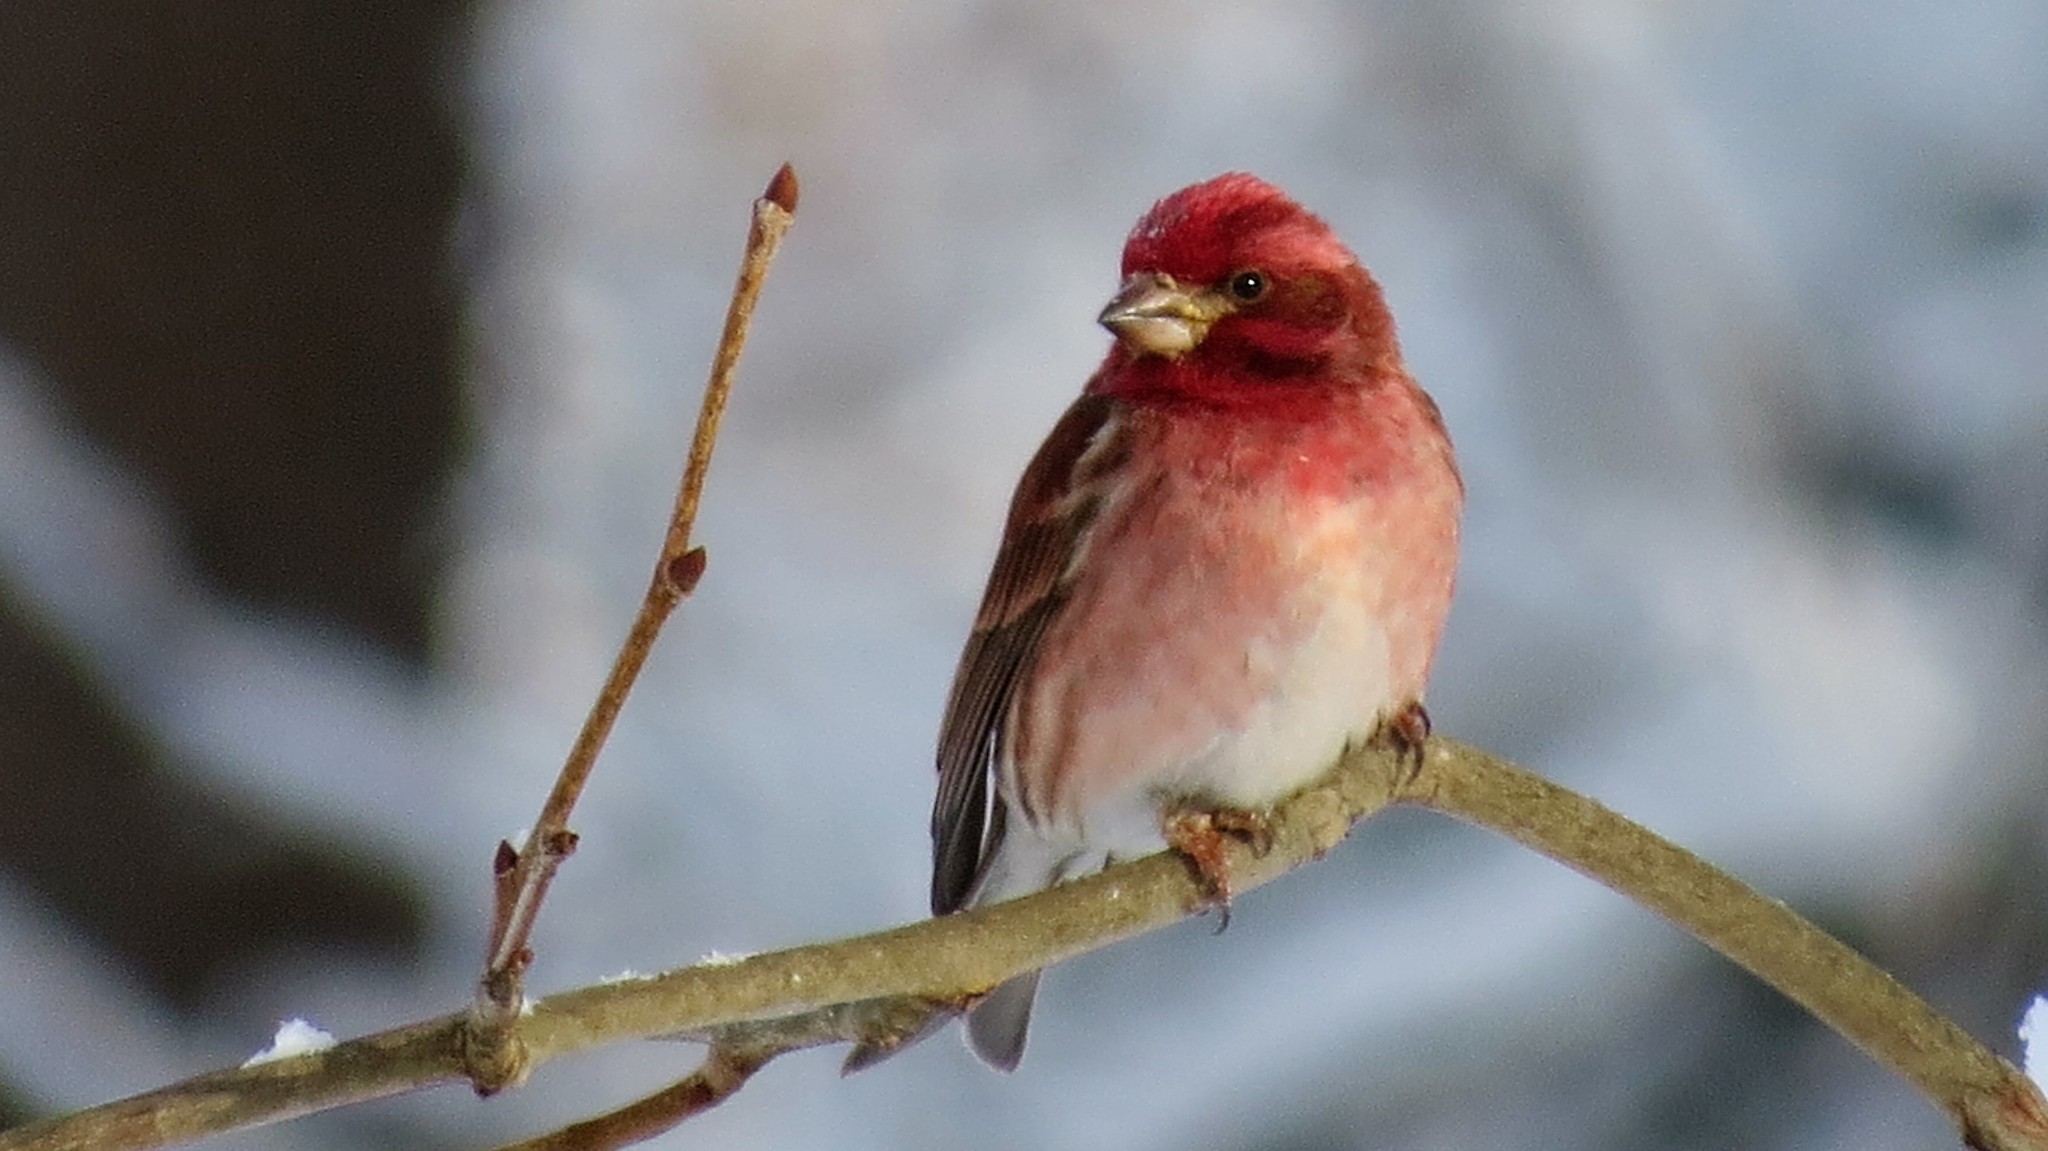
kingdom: Animalia
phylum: Chordata
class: Aves
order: Passeriformes
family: Fringillidae
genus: Haemorhous
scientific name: Haemorhous purpureus
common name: Purple finch
